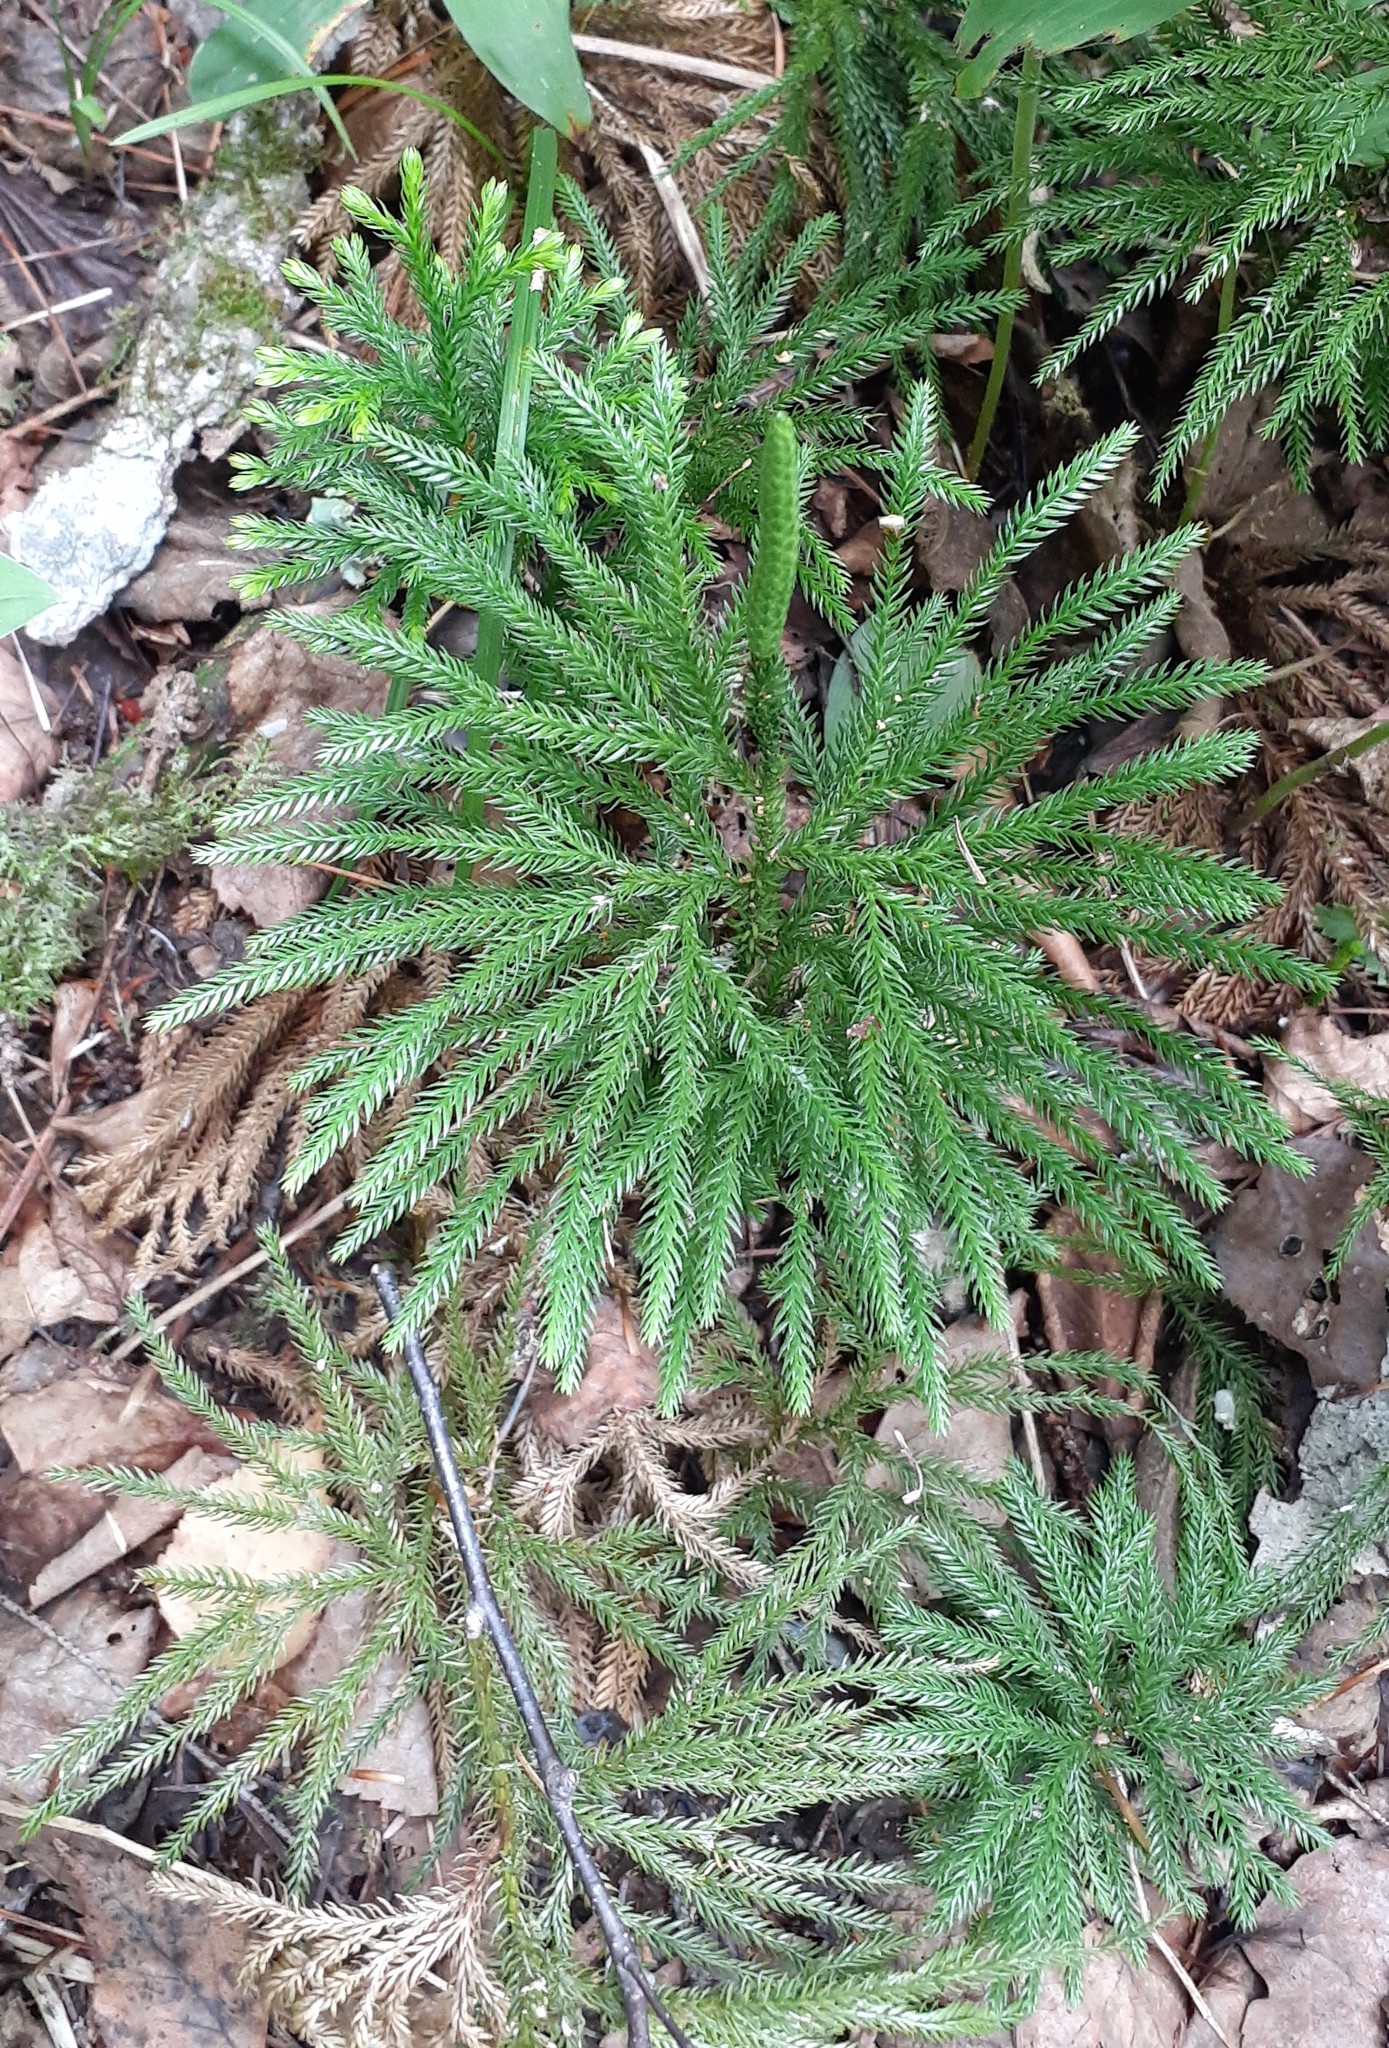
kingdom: Plantae
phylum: Tracheophyta
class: Lycopodiopsida
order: Lycopodiales
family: Lycopodiaceae
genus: Dendrolycopodium
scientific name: Dendrolycopodium obscurum
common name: Common ground-pine
